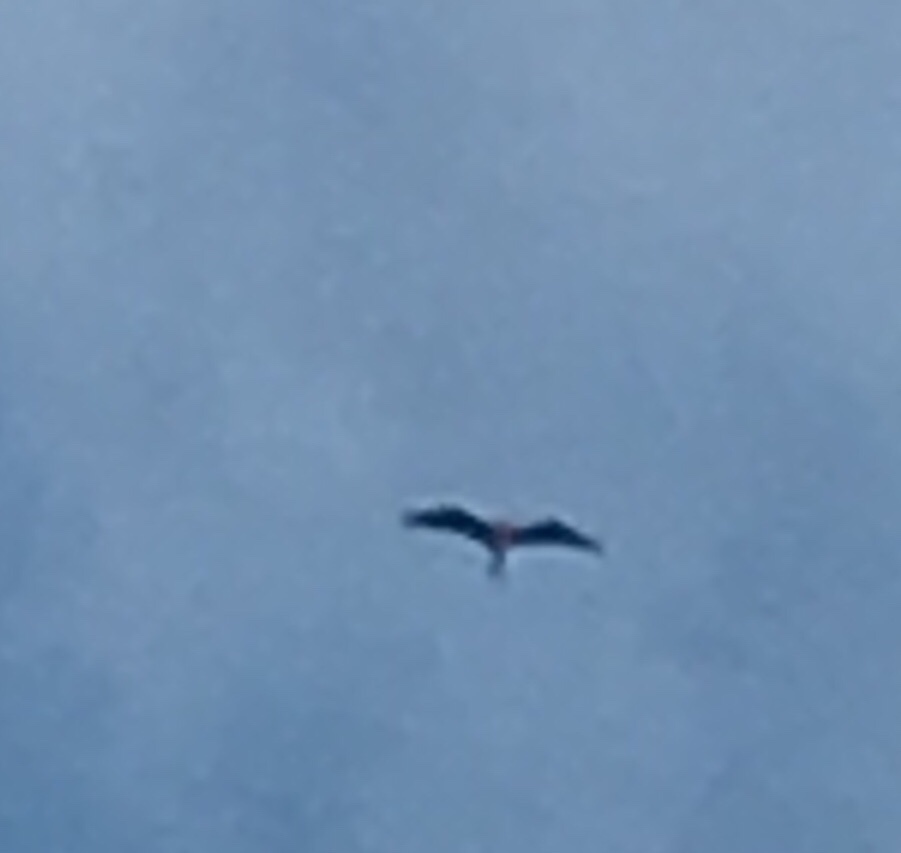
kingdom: Animalia
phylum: Chordata
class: Aves
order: Suliformes
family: Fregatidae
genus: Fregata
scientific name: Fregata magnificens
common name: Magnificent frigatebird
